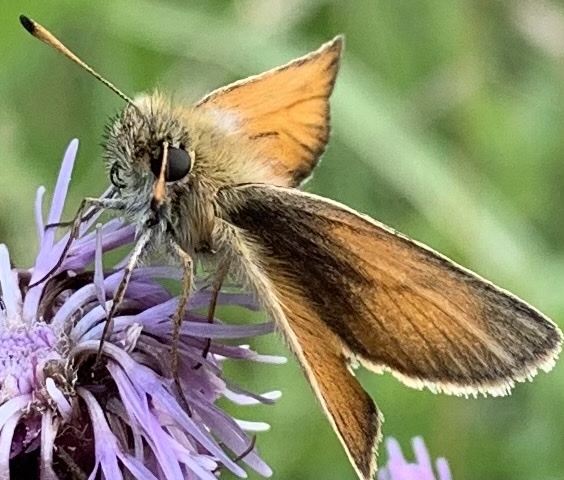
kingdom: Animalia
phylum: Arthropoda
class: Insecta
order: Lepidoptera
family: Hesperiidae
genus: Thymelicus
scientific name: Thymelicus lineola
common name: Essex skipper
